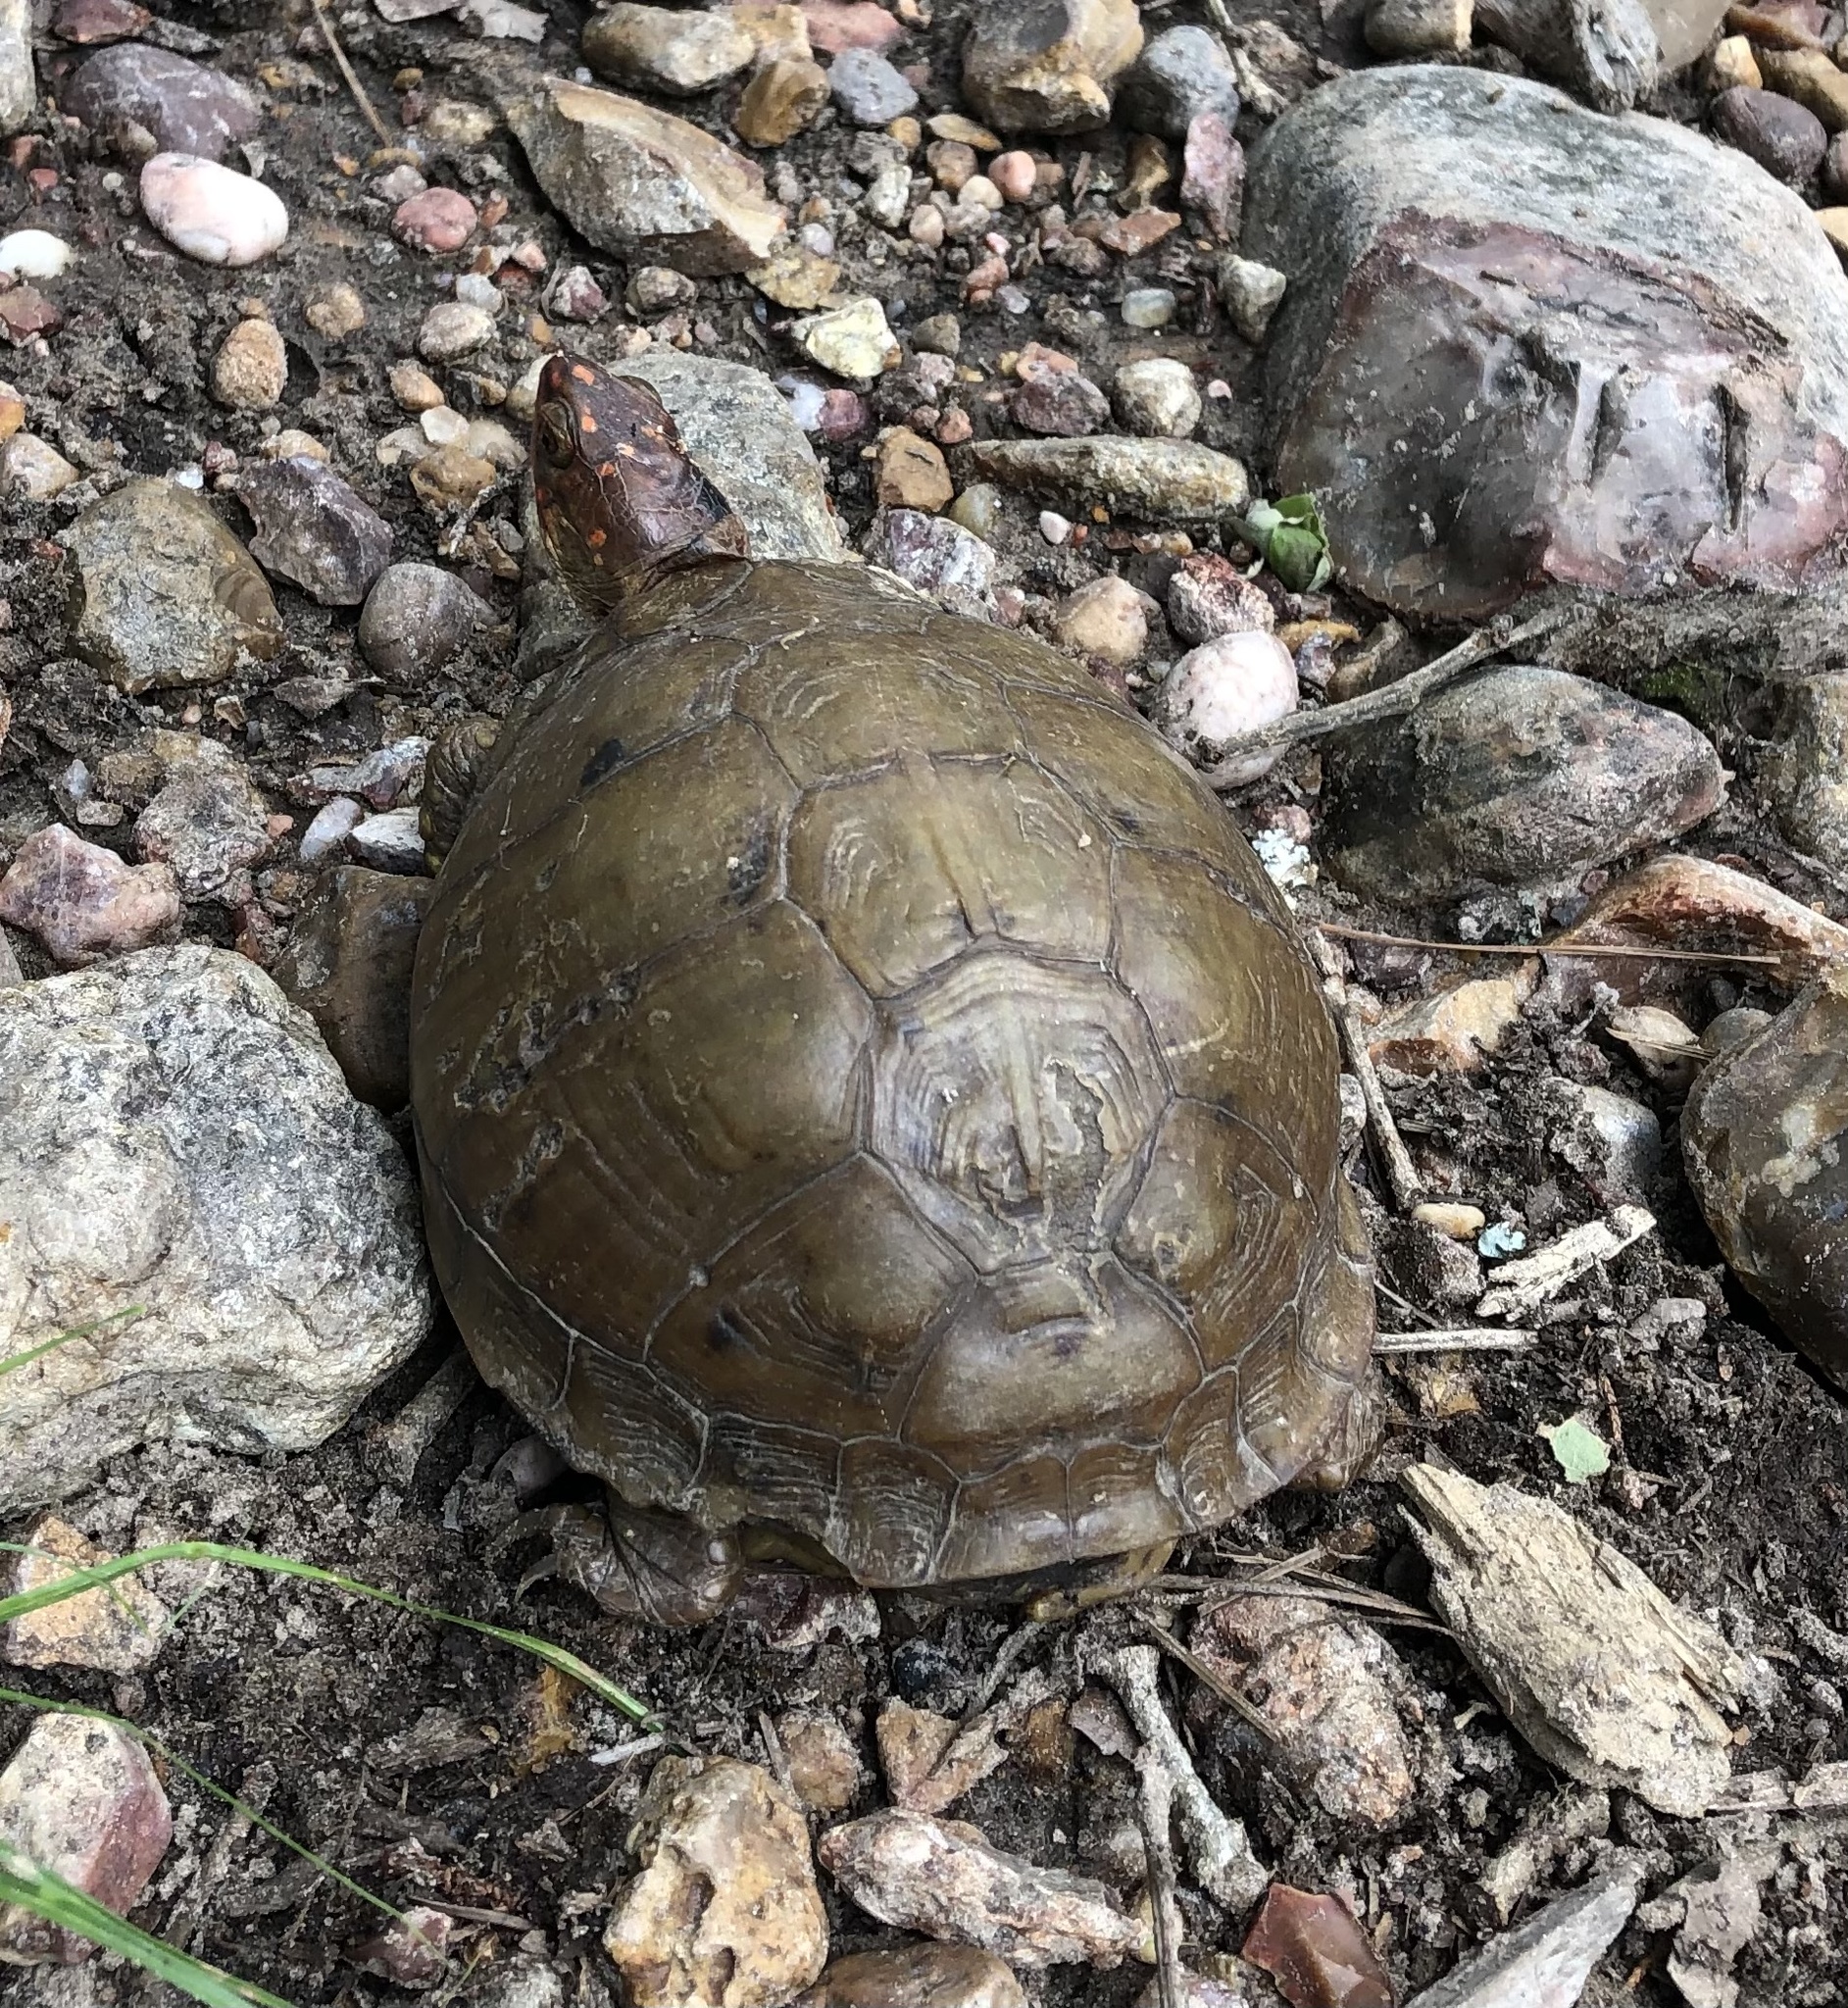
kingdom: Animalia
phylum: Chordata
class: Testudines
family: Emydidae
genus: Terrapene
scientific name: Terrapene carolina
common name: Common box turtle
